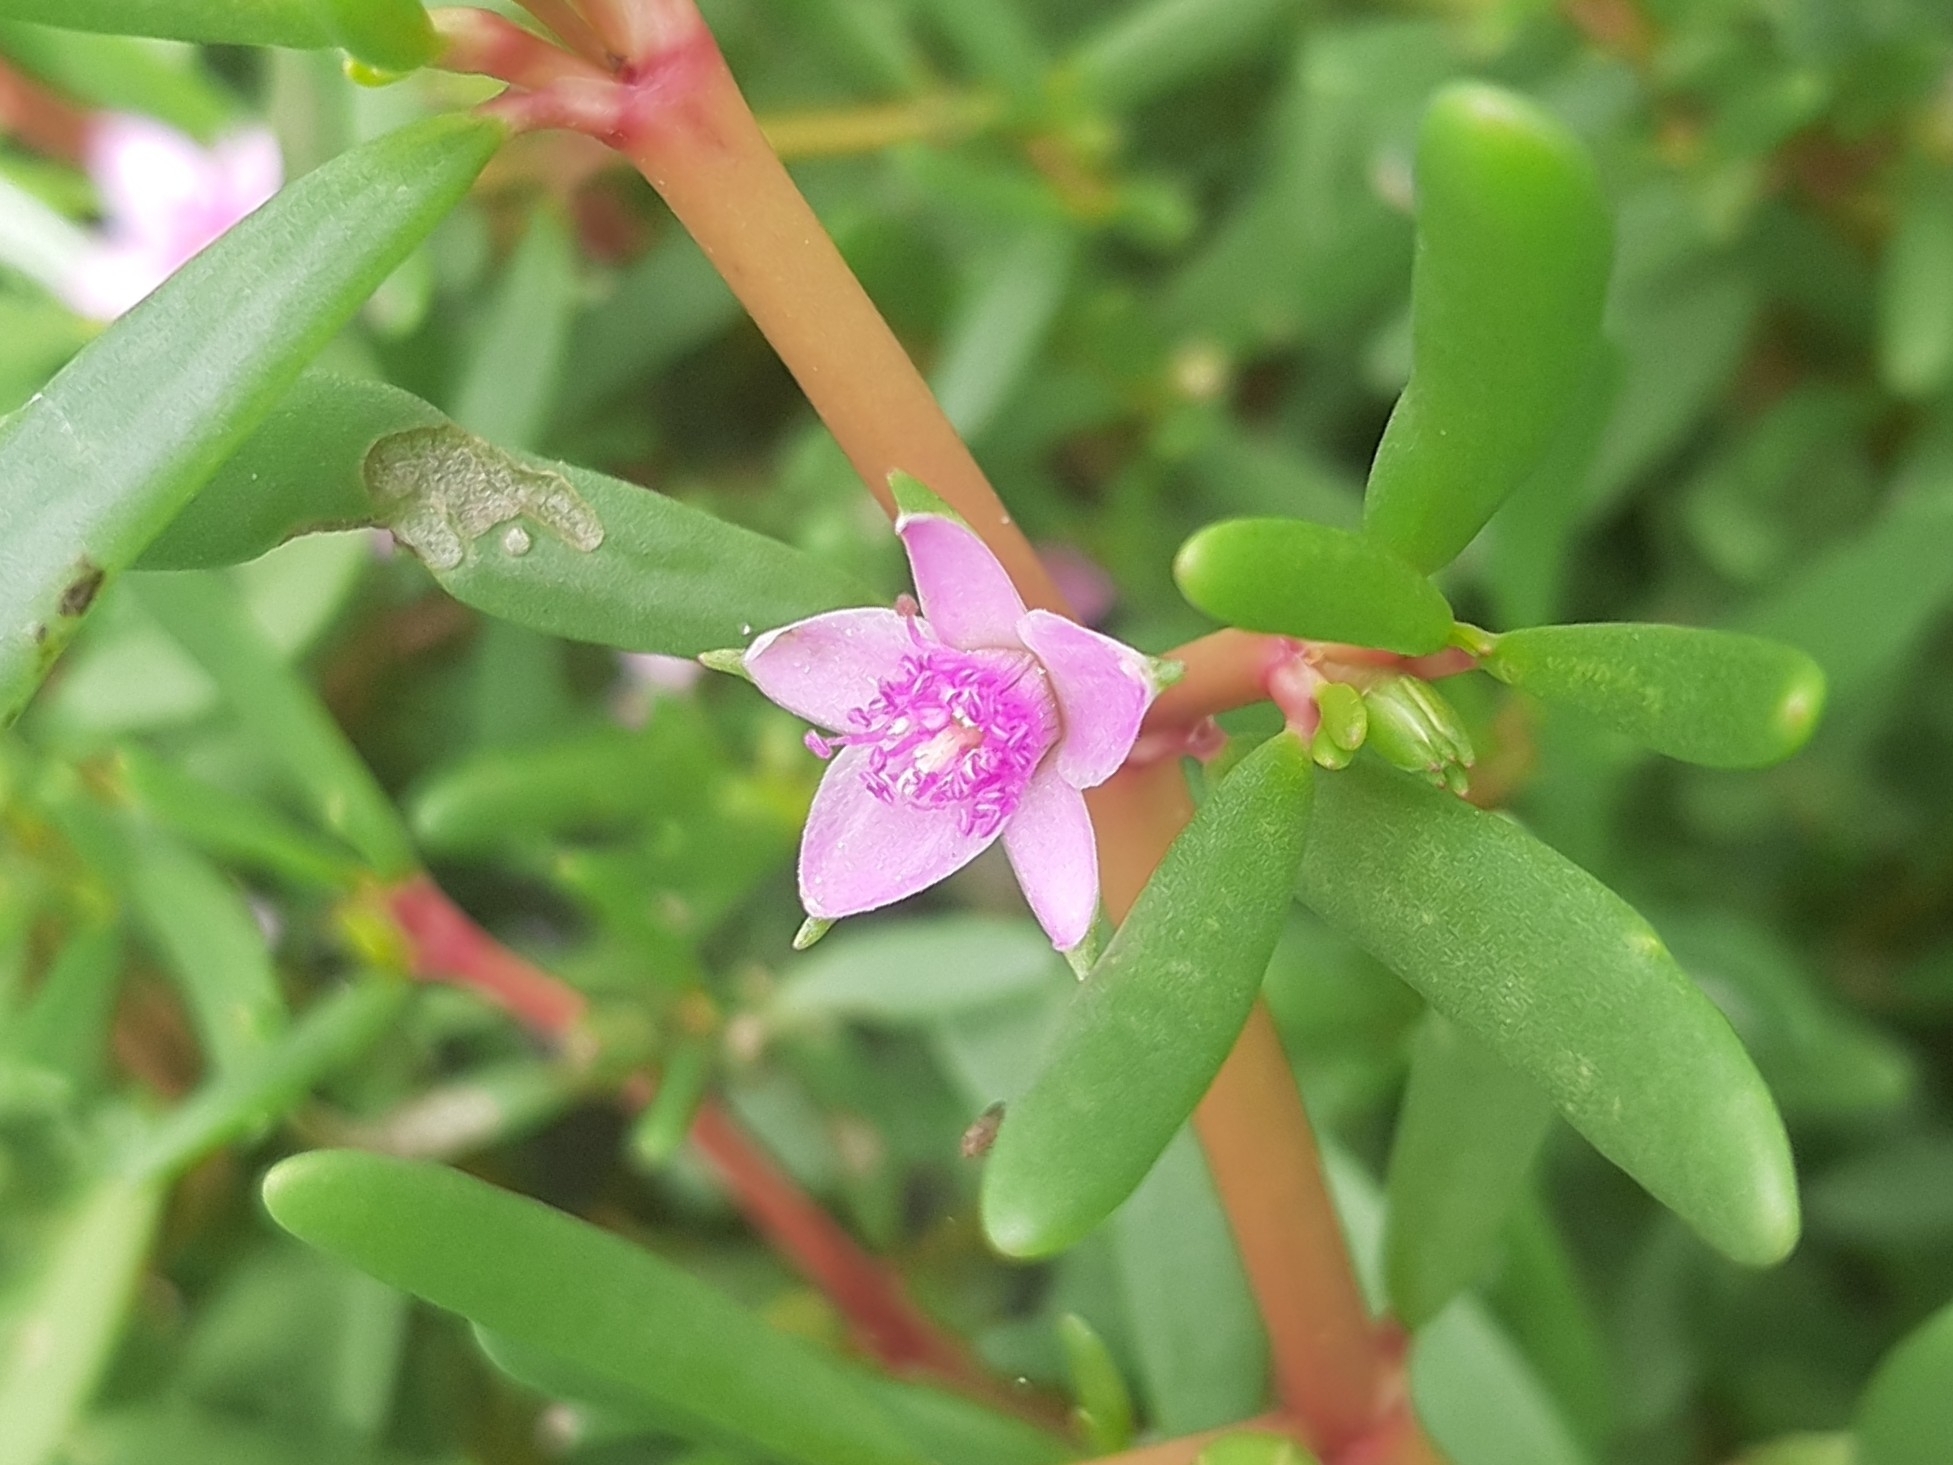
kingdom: Plantae
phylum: Tracheophyta
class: Magnoliopsida
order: Caryophyllales
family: Aizoaceae
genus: Sesuvium
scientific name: Sesuvium portulacastrum
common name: Sea-purslane
